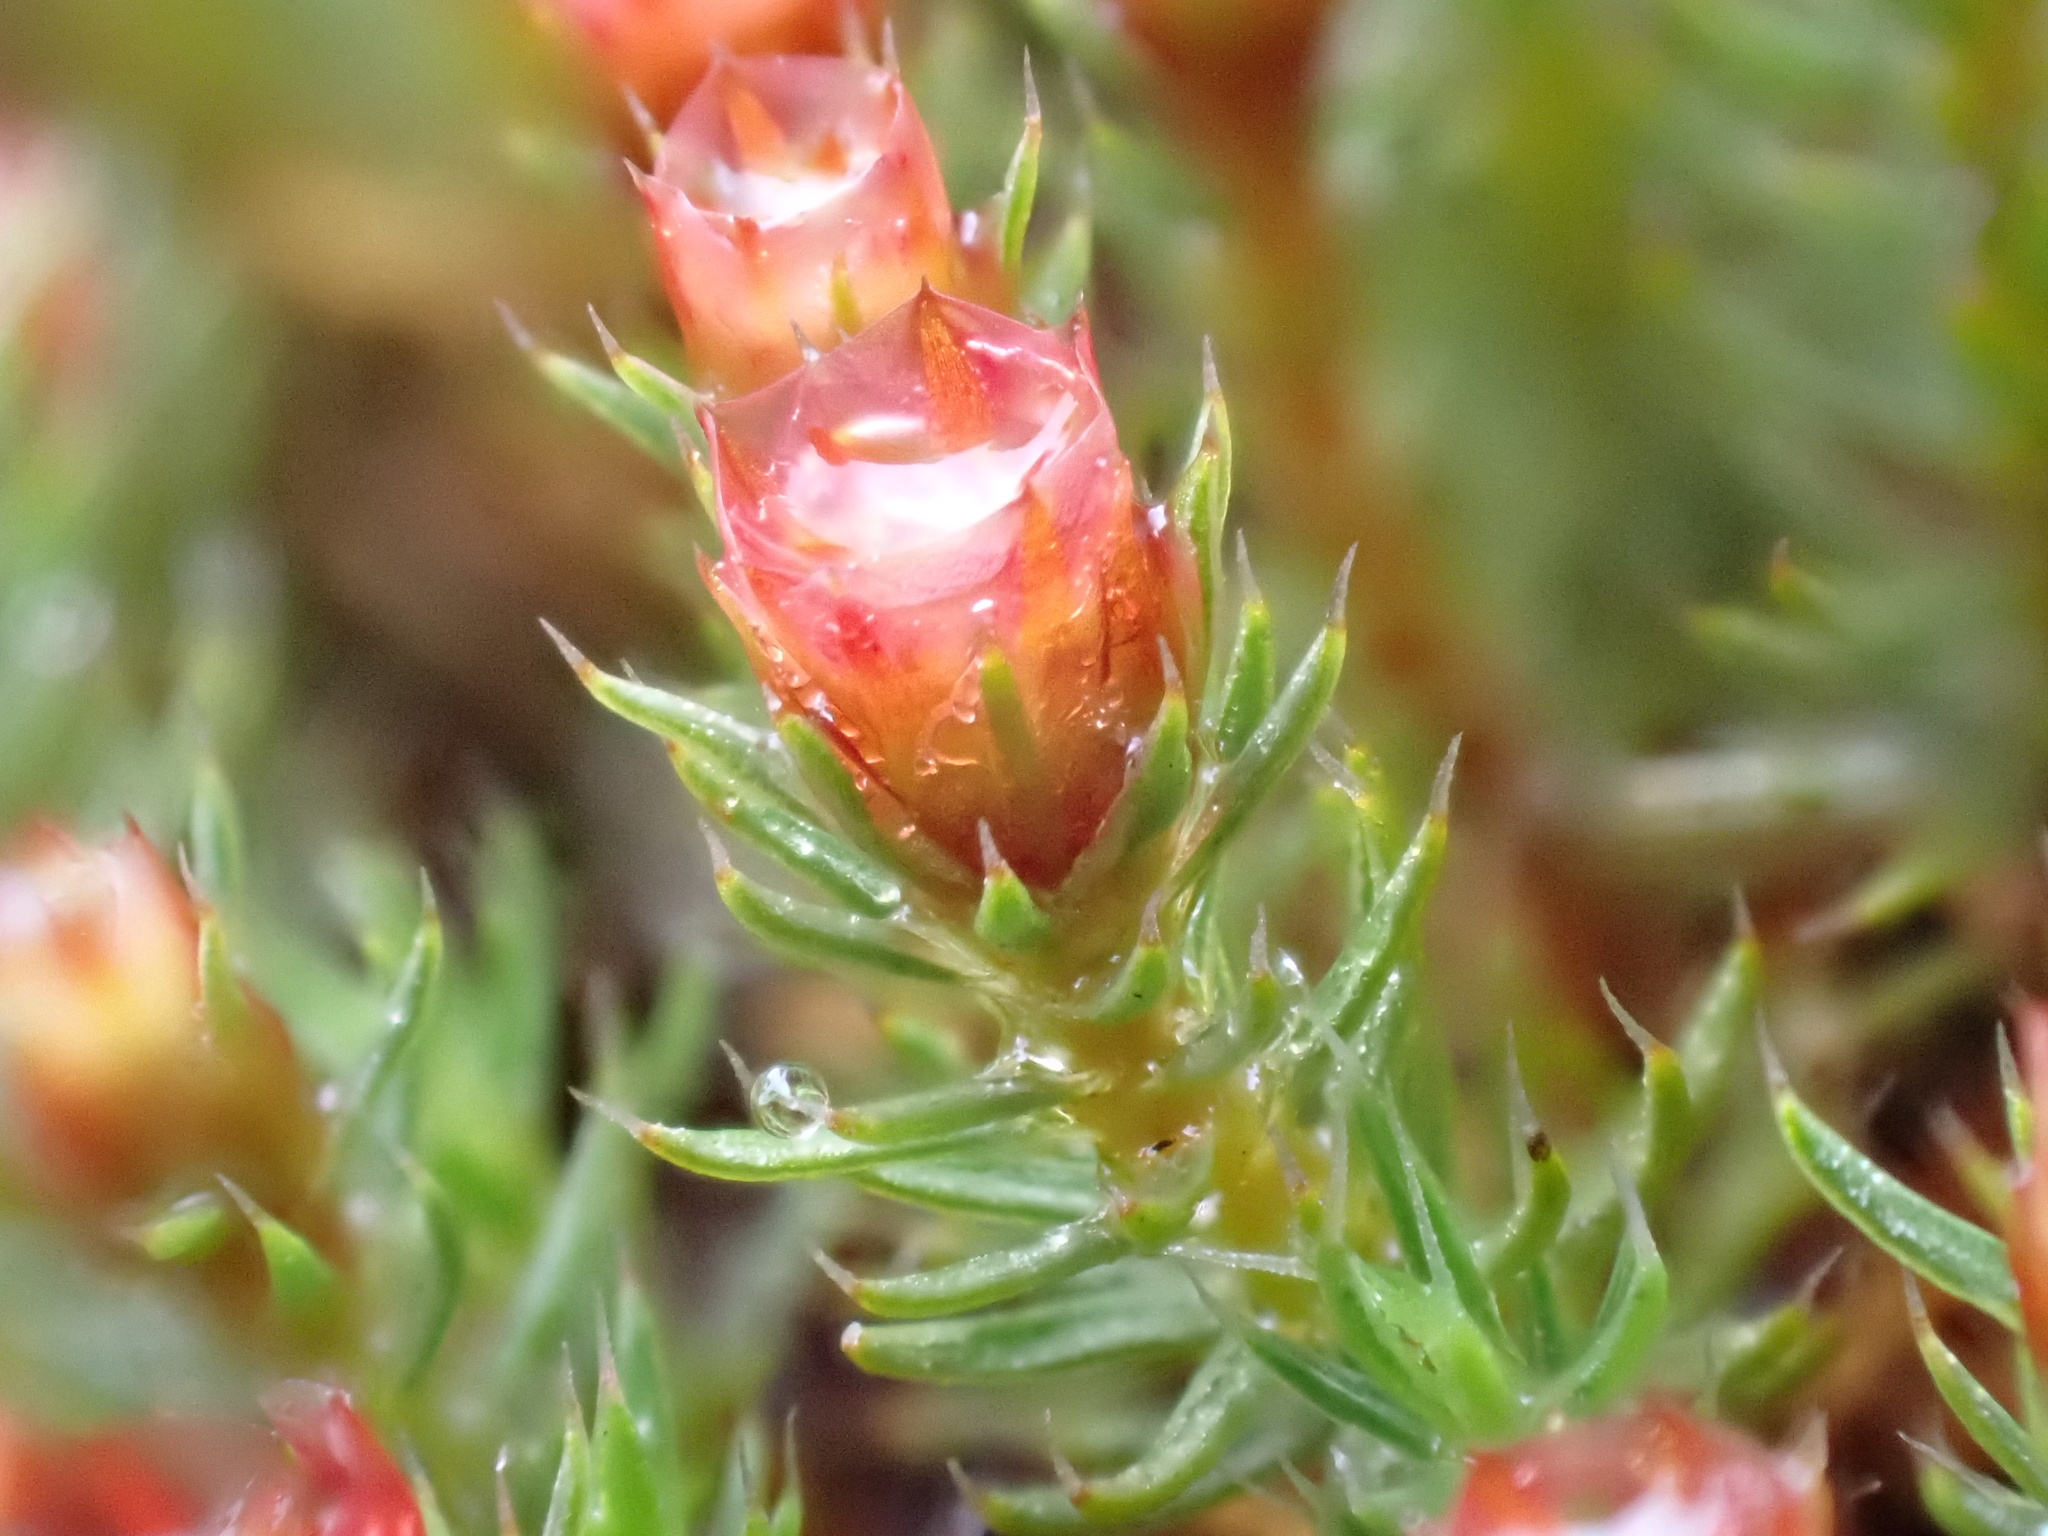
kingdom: Plantae
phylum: Bryophyta
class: Polytrichopsida
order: Polytrichales
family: Polytrichaceae
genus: Polytrichum
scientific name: Polytrichum piliferum
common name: Bristly haircap
